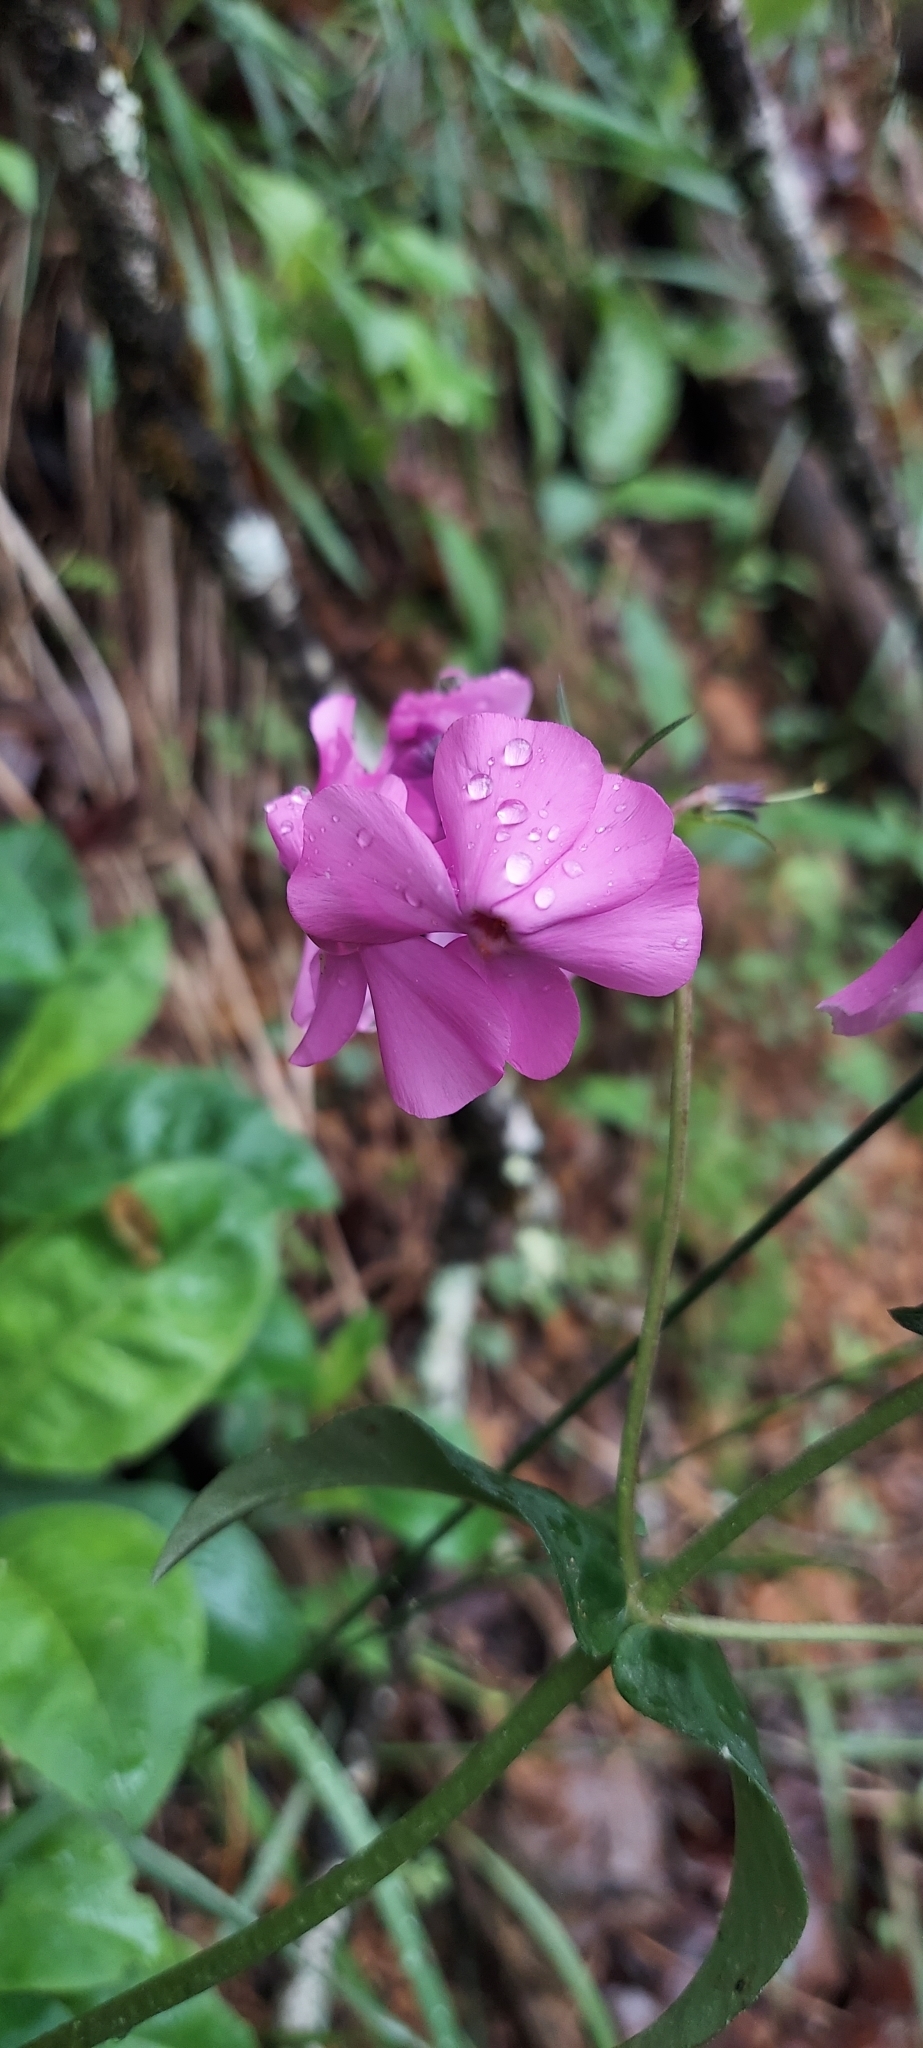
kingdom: Plantae
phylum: Tracheophyta
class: Magnoliopsida
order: Ericales
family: Polemoniaceae
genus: Phlox
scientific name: Phlox ovata
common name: Mountain phlox
